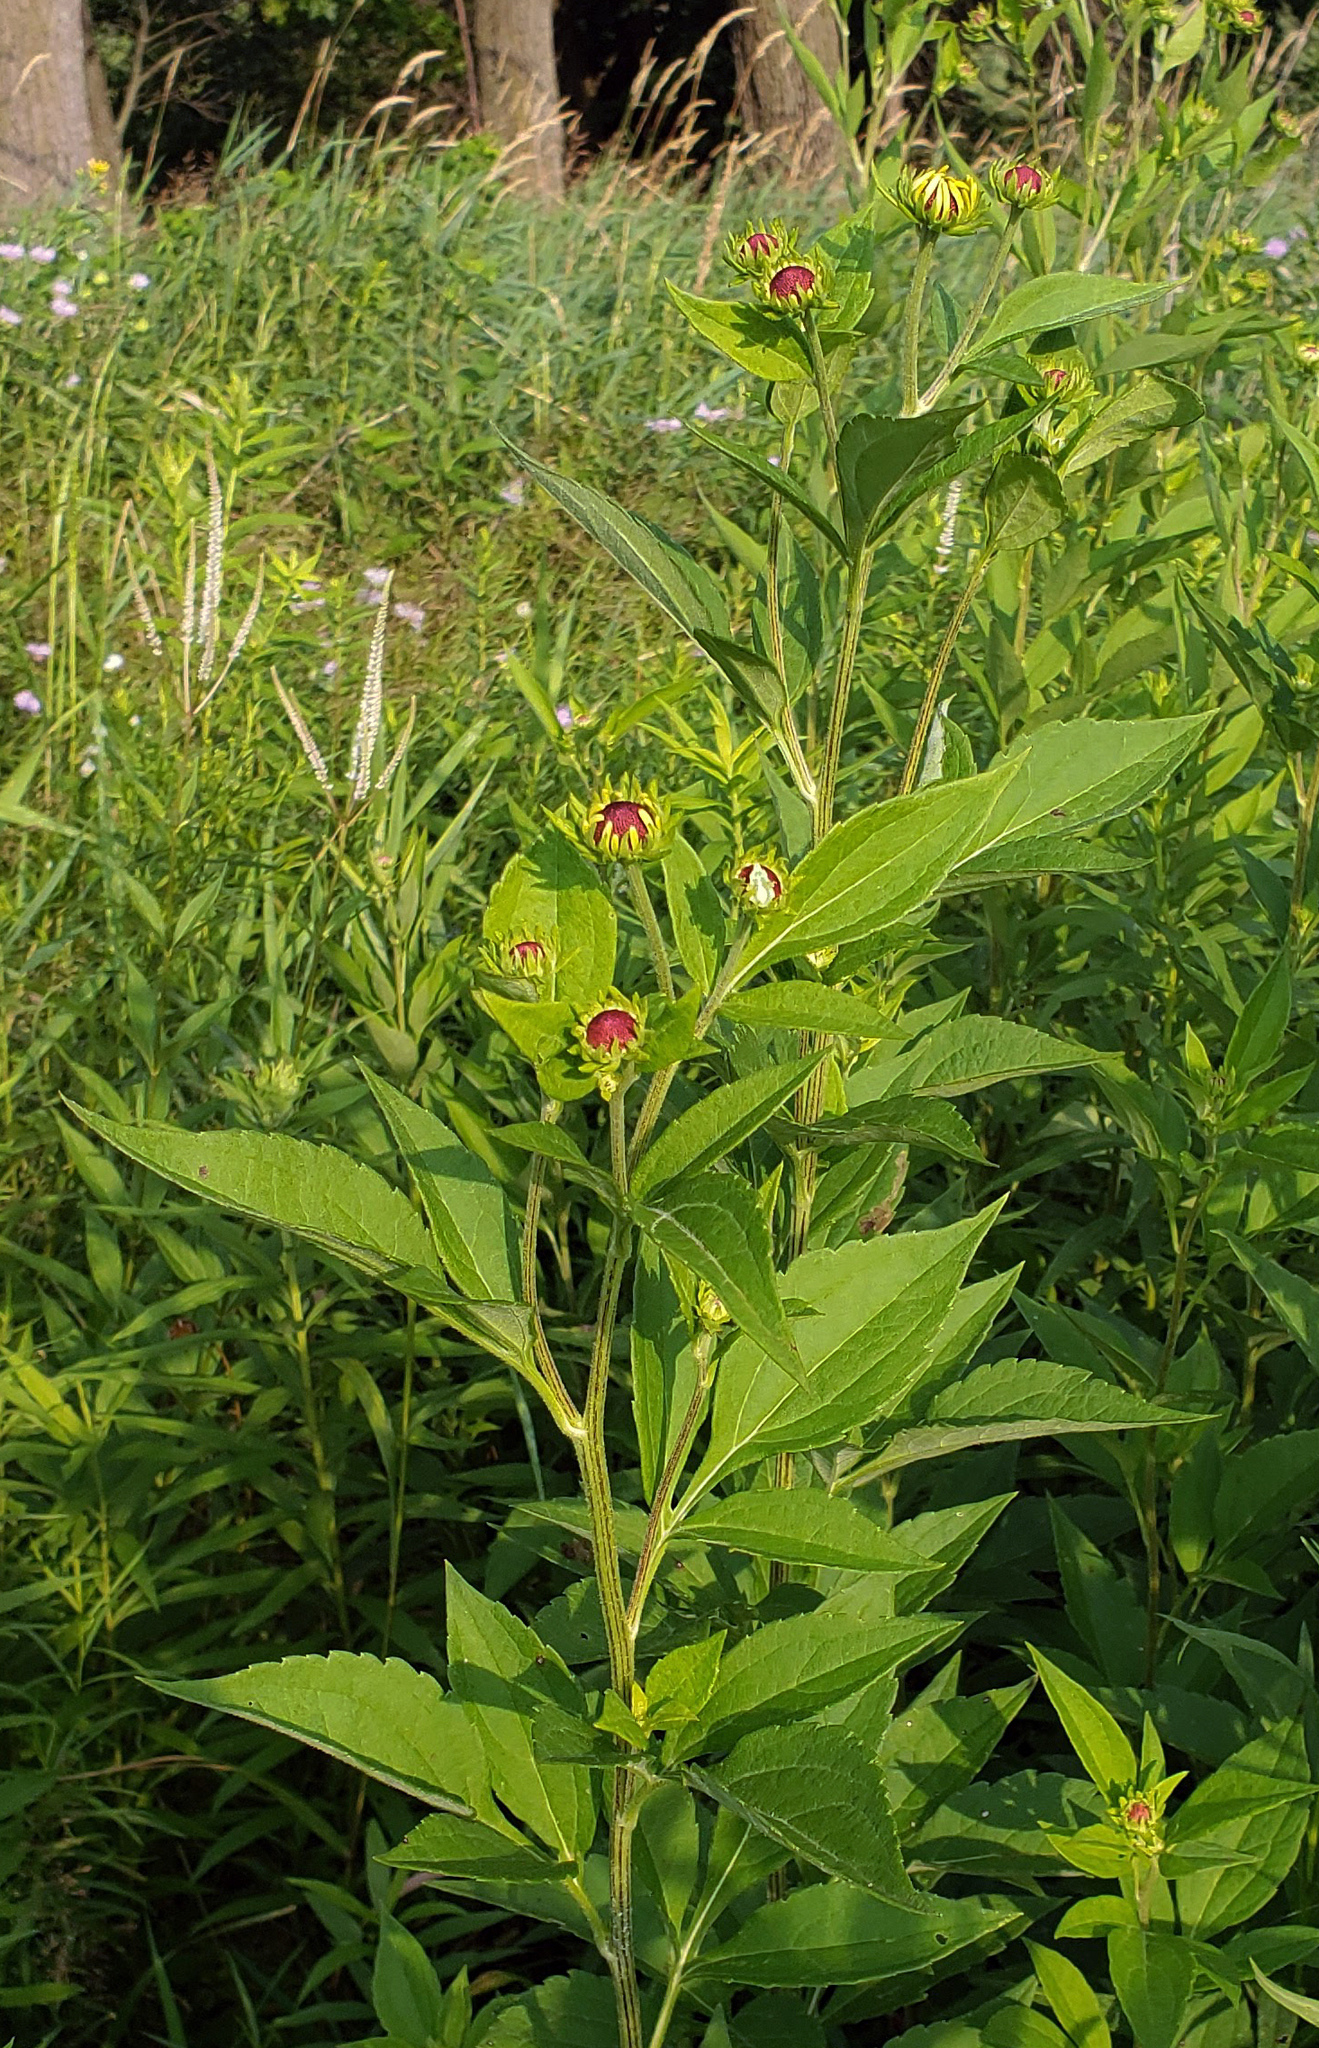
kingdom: Plantae
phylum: Tracheophyta
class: Magnoliopsida
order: Asterales
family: Asteraceae
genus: Rudbeckia
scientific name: Rudbeckia subtomentosa
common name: Sweet coneflower
